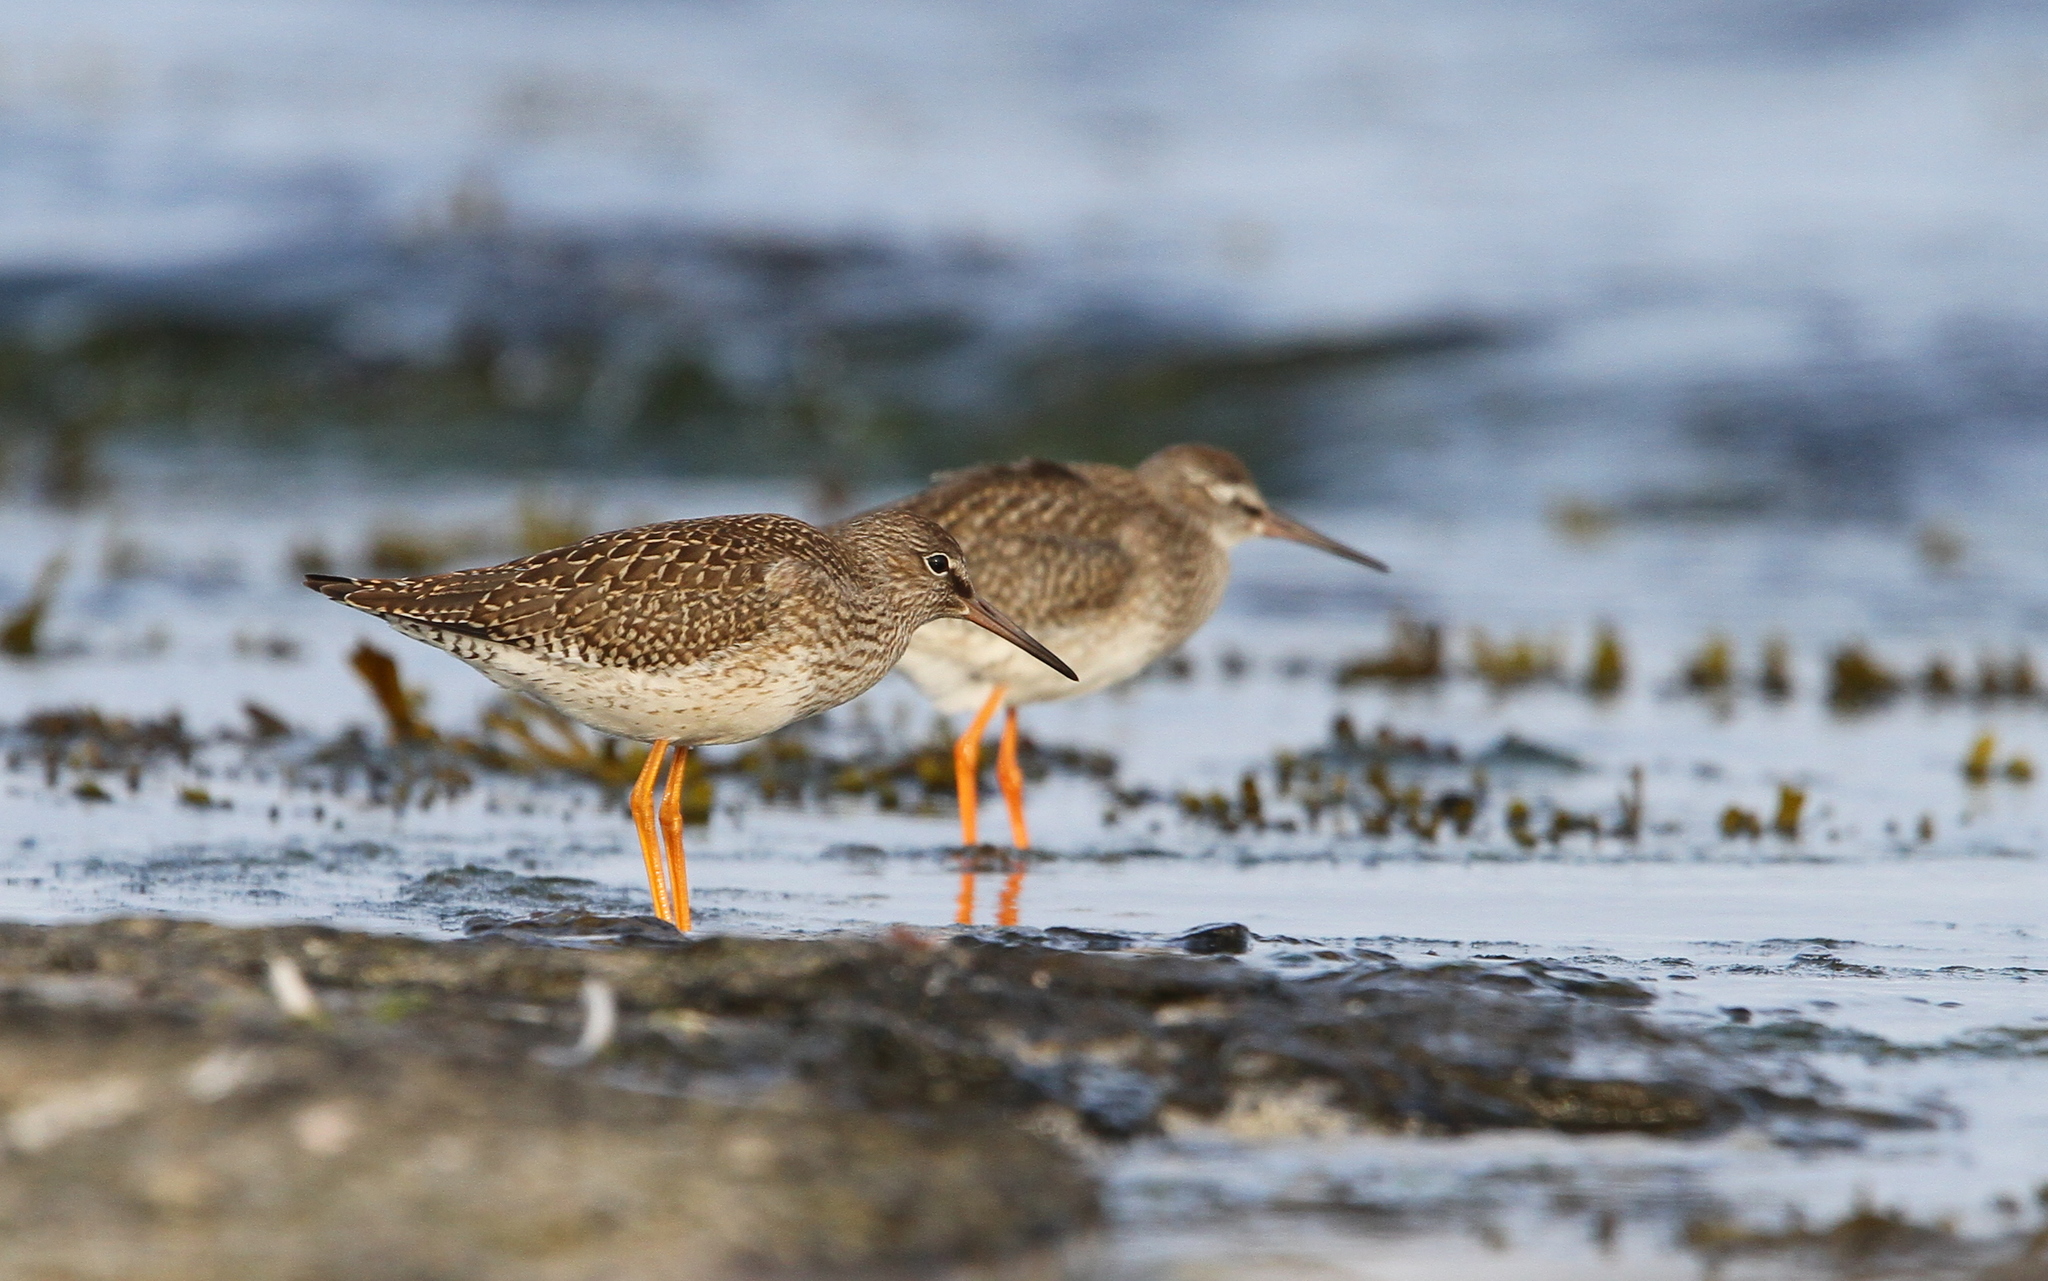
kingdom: Animalia
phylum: Chordata
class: Aves
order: Charadriiformes
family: Scolopacidae
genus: Tringa
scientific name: Tringa totanus
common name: Common redshank
